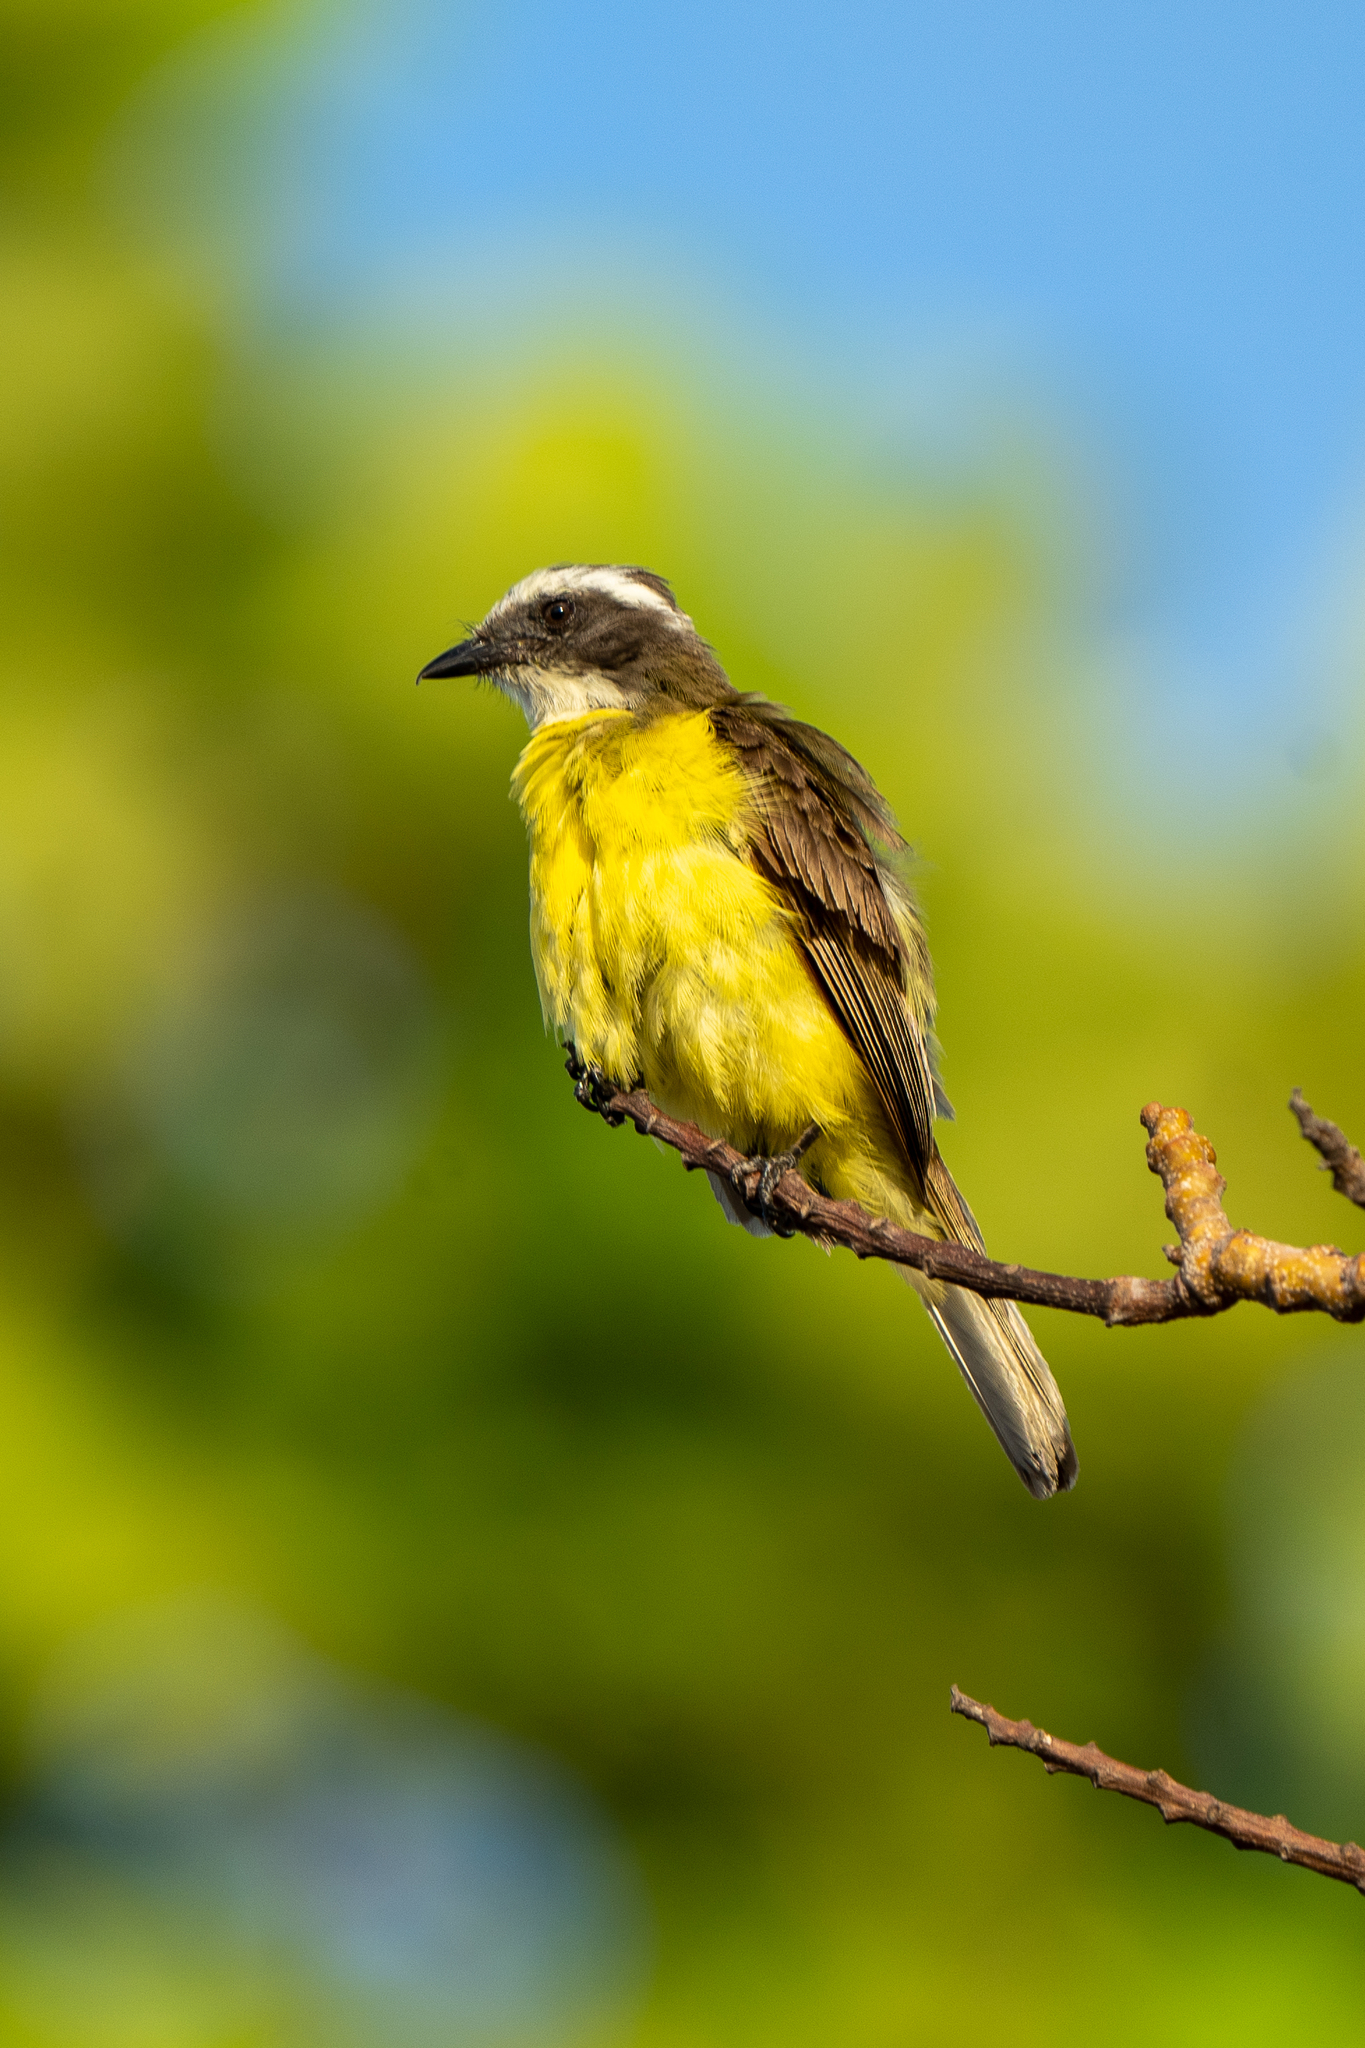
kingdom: Animalia
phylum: Chordata
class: Aves
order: Passeriformes
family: Tyrannidae
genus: Myiozetetes
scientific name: Myiozetetes similis
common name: Social flycatcher
